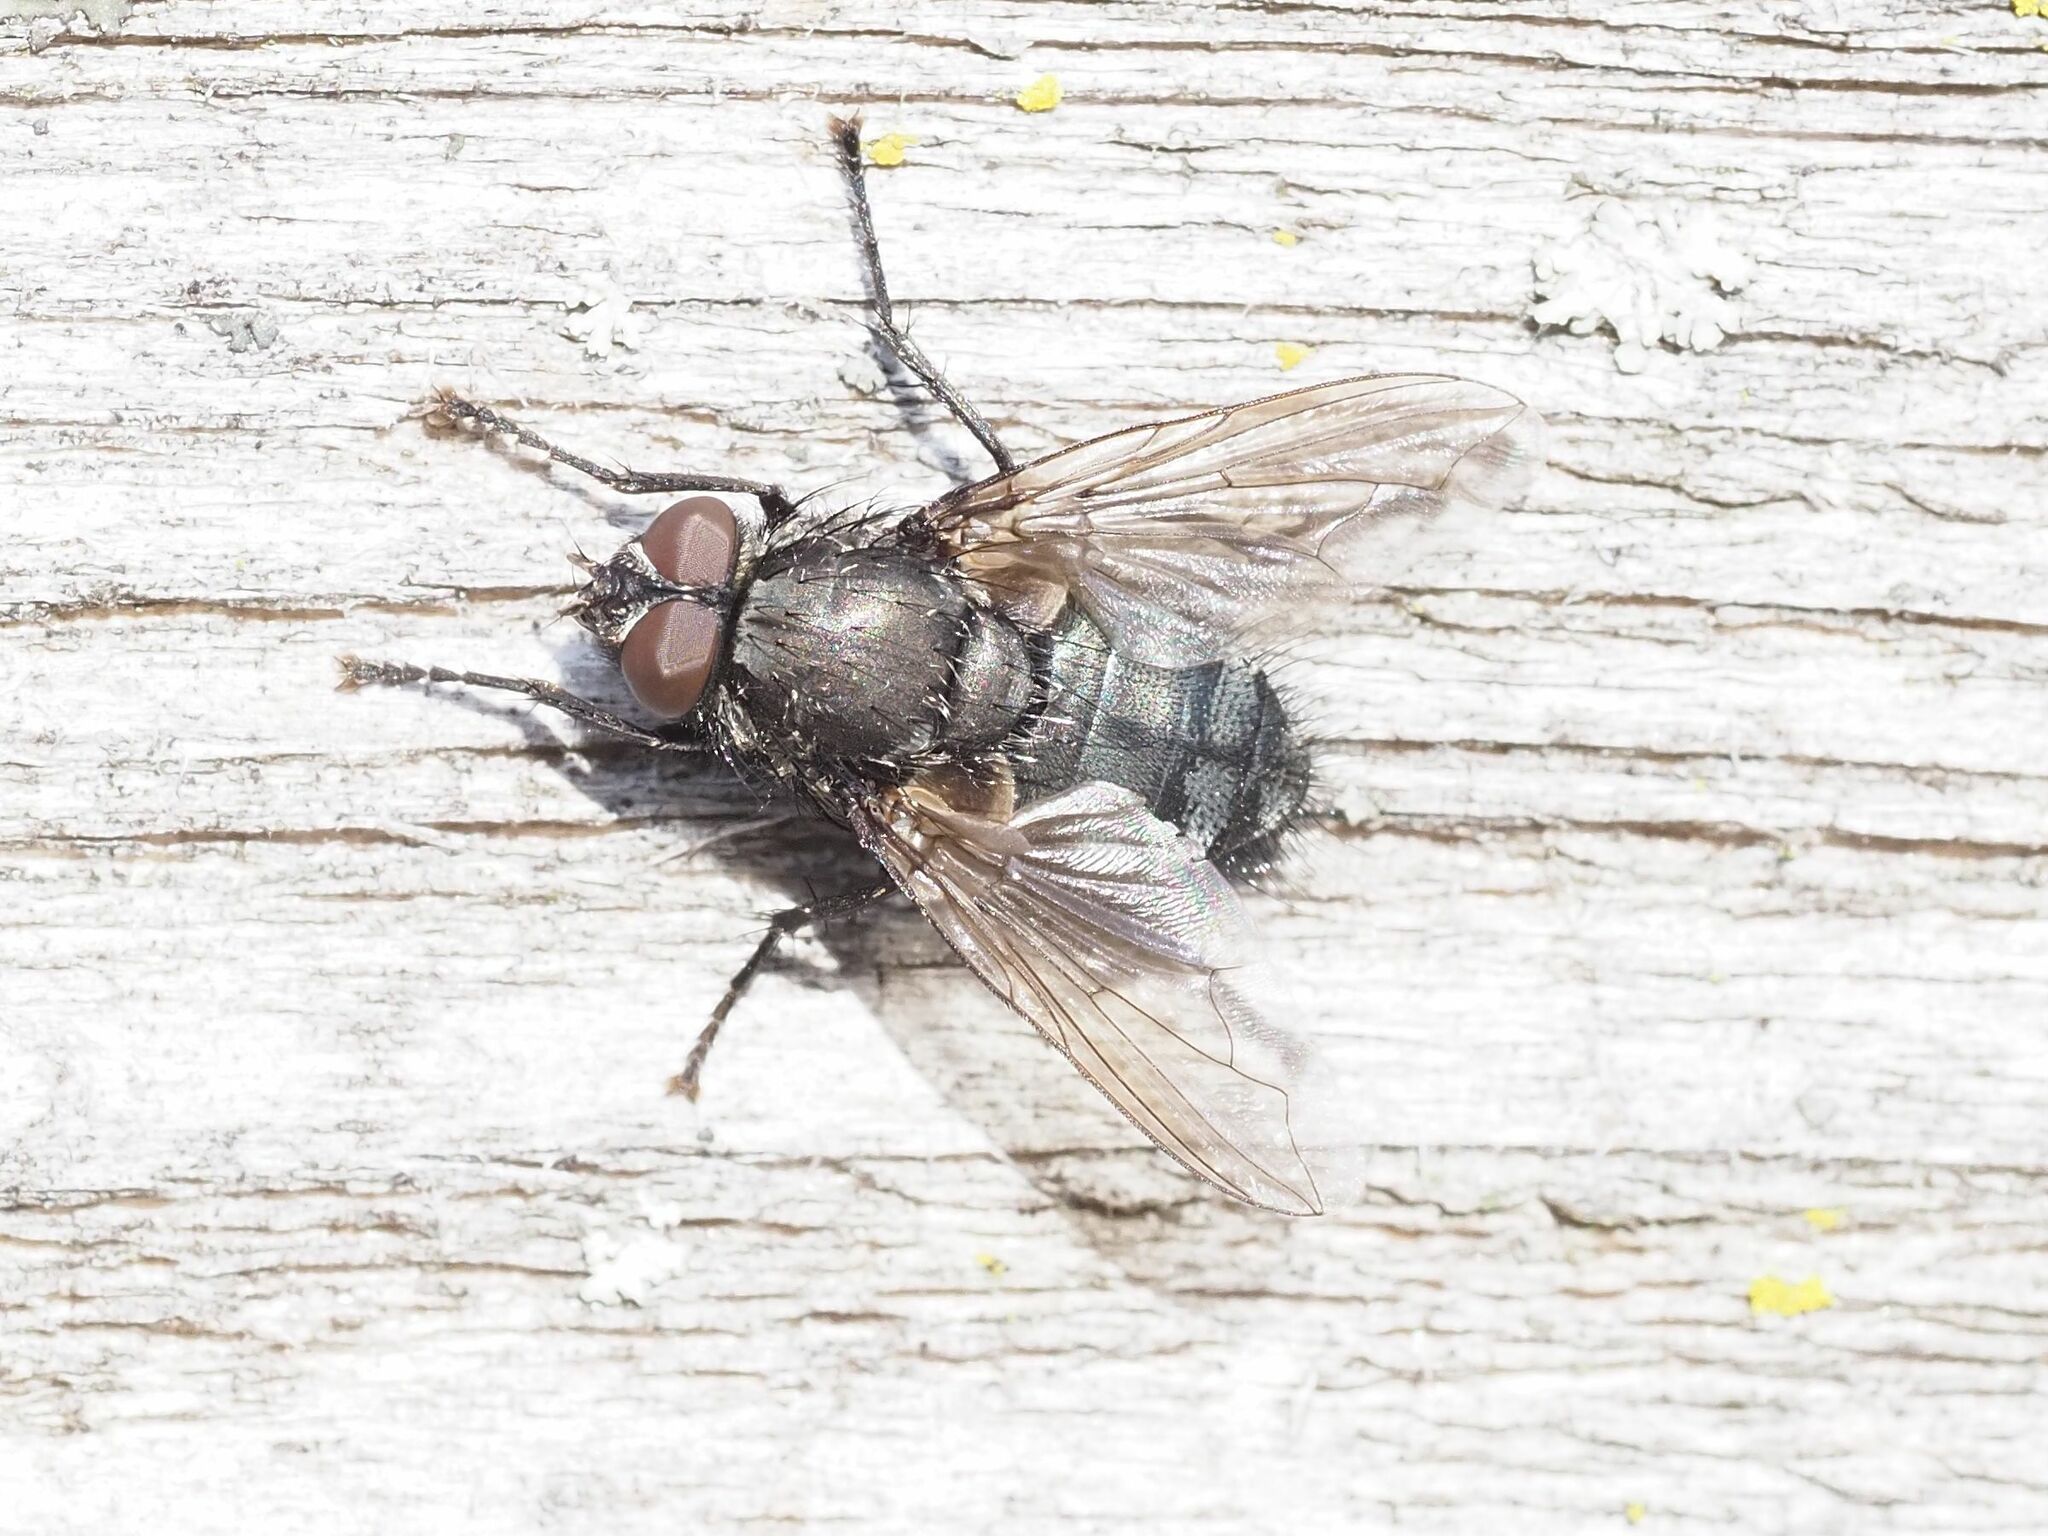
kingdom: Animalia
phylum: Arthropoda
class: Insecta
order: Diptera
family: Polleniidae
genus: Pollenia
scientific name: Pollenia vagabunda
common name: Vagabund cluster fly
